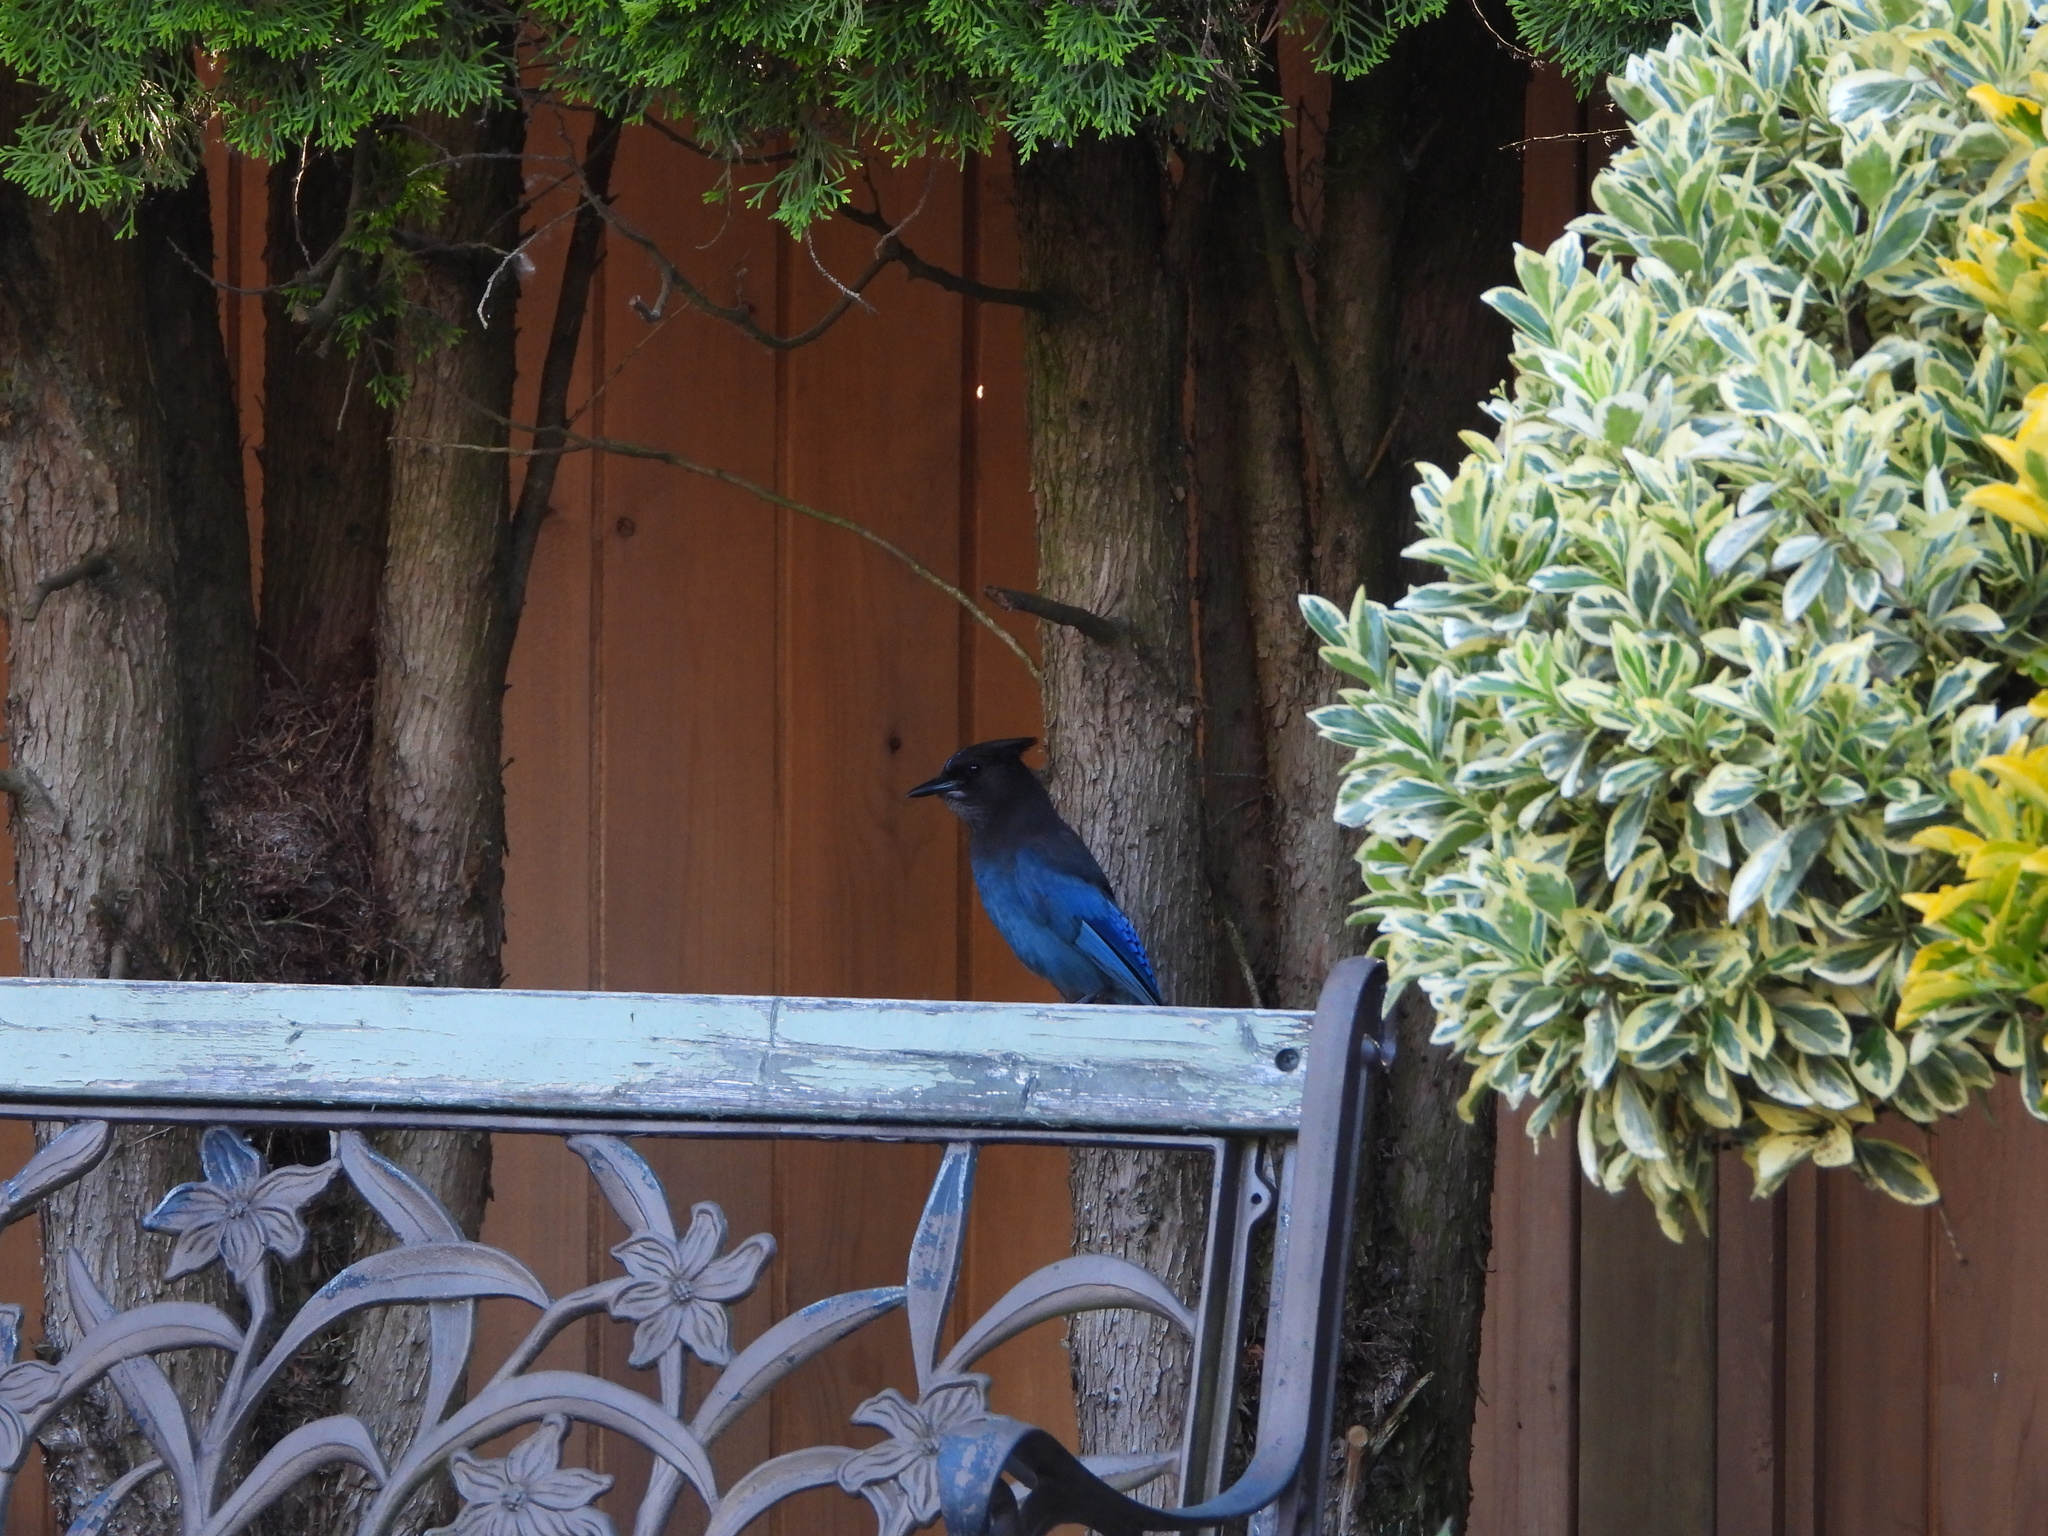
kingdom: Animalia
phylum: Chordata
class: Aves
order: Passeriformes
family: Corvidae
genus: Cyanocitta
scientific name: Cyanocitta stelleri
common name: Steller's jay
